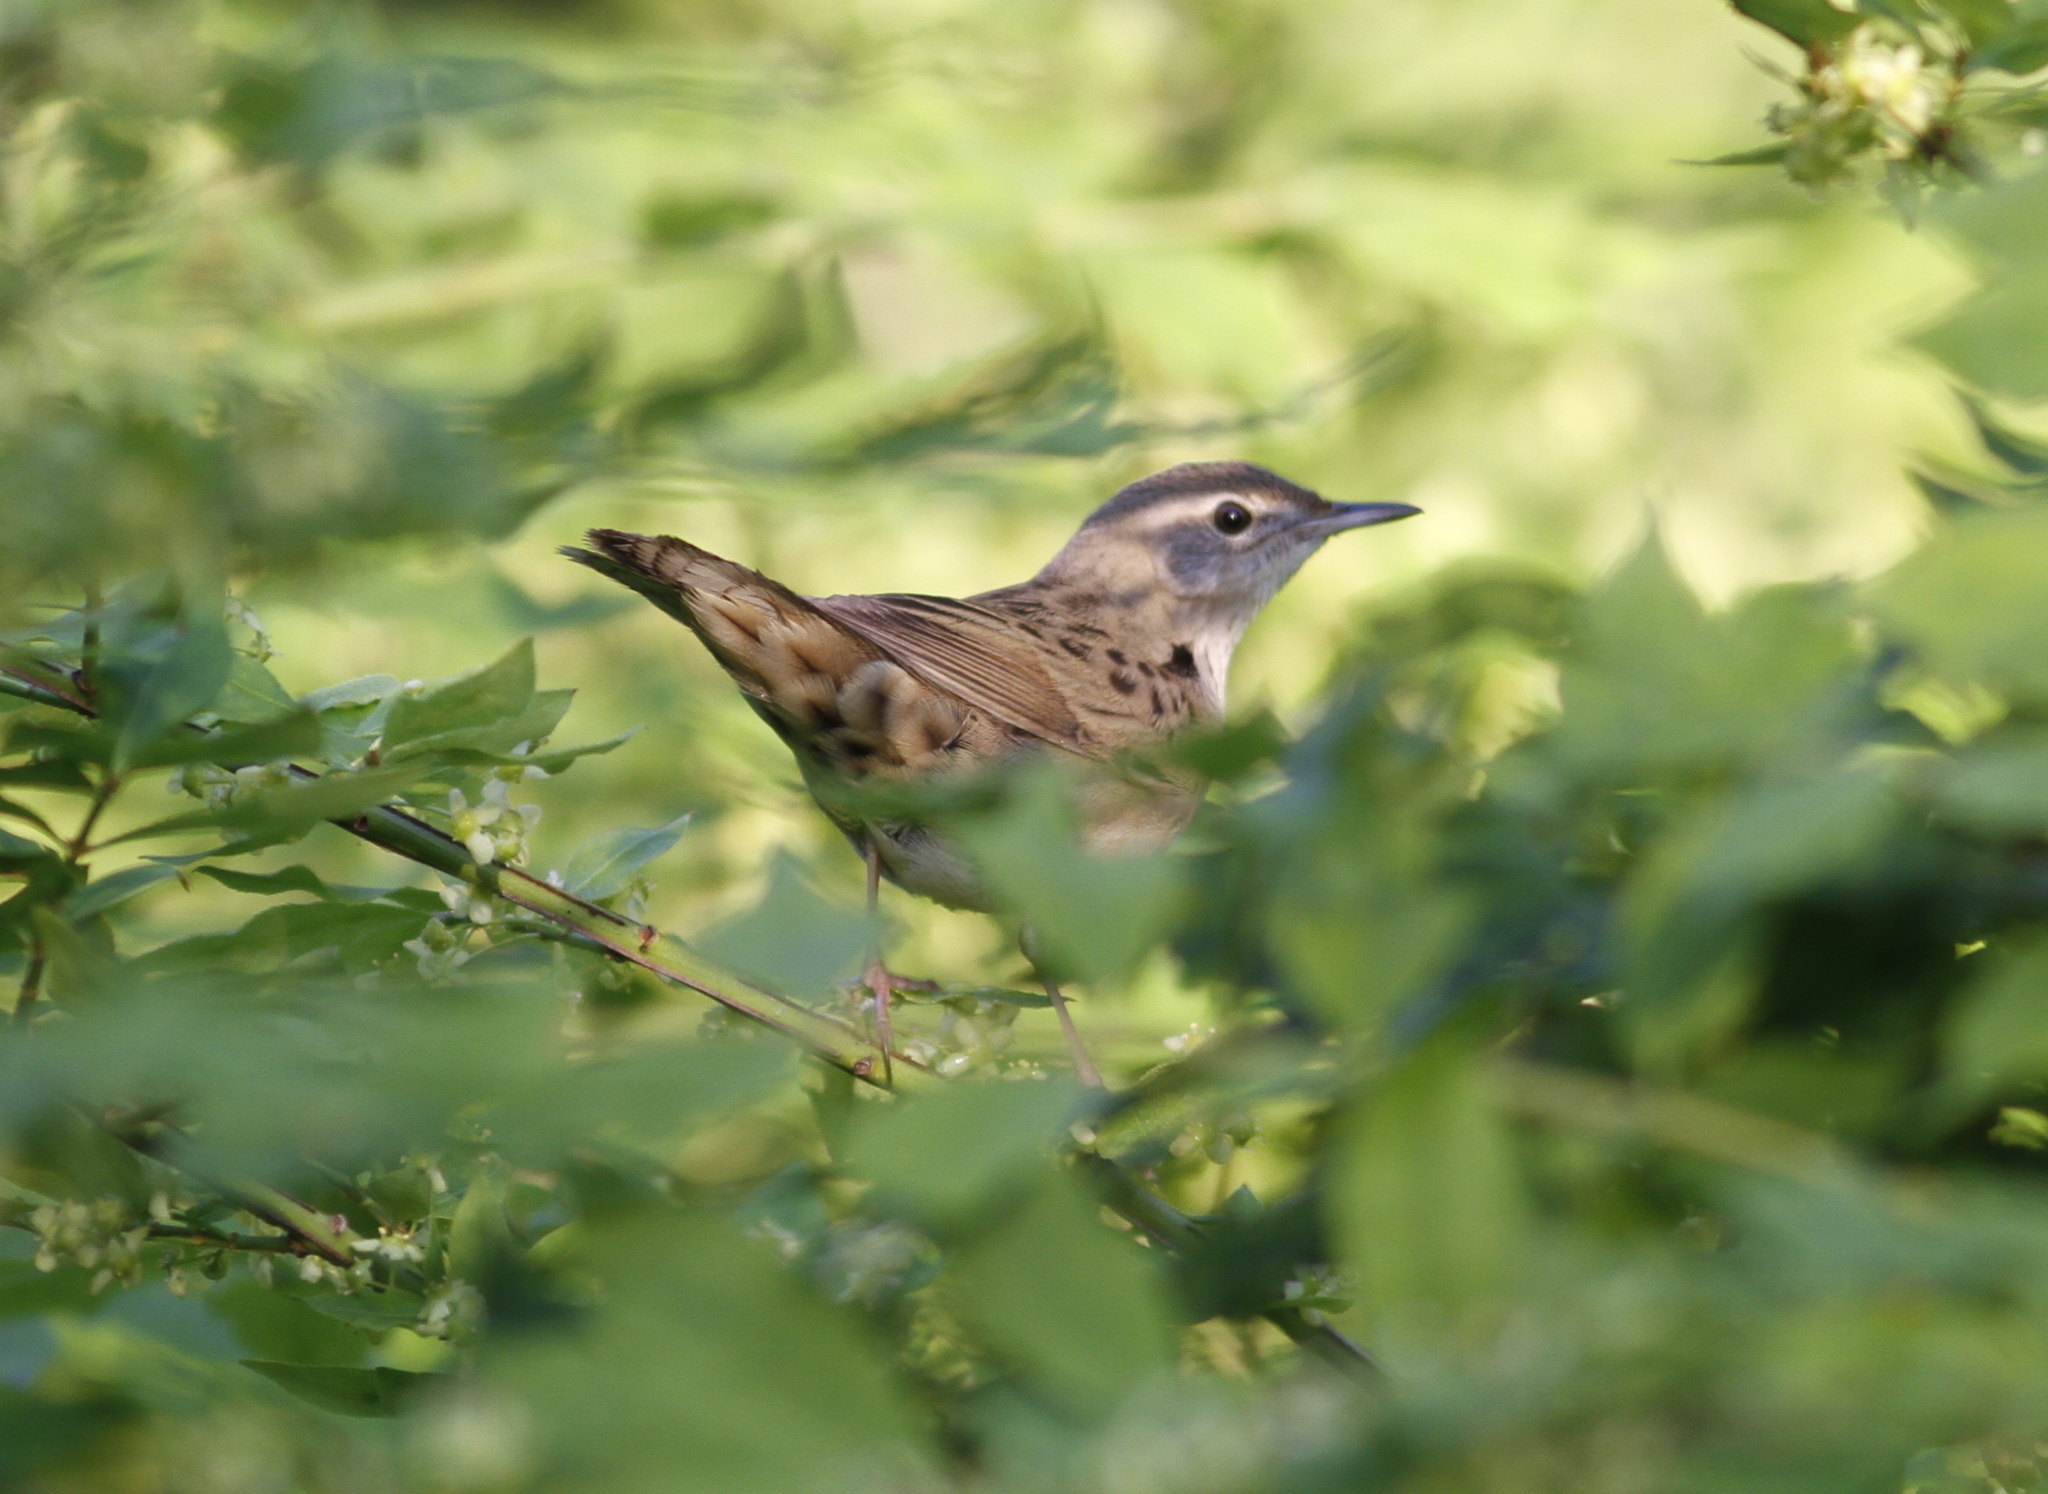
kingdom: Animalia
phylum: Chordata
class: Aves
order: Passeriformes
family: Locustellidae
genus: Locustella
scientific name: Locustella naevia
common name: Common grasshopper warbler
